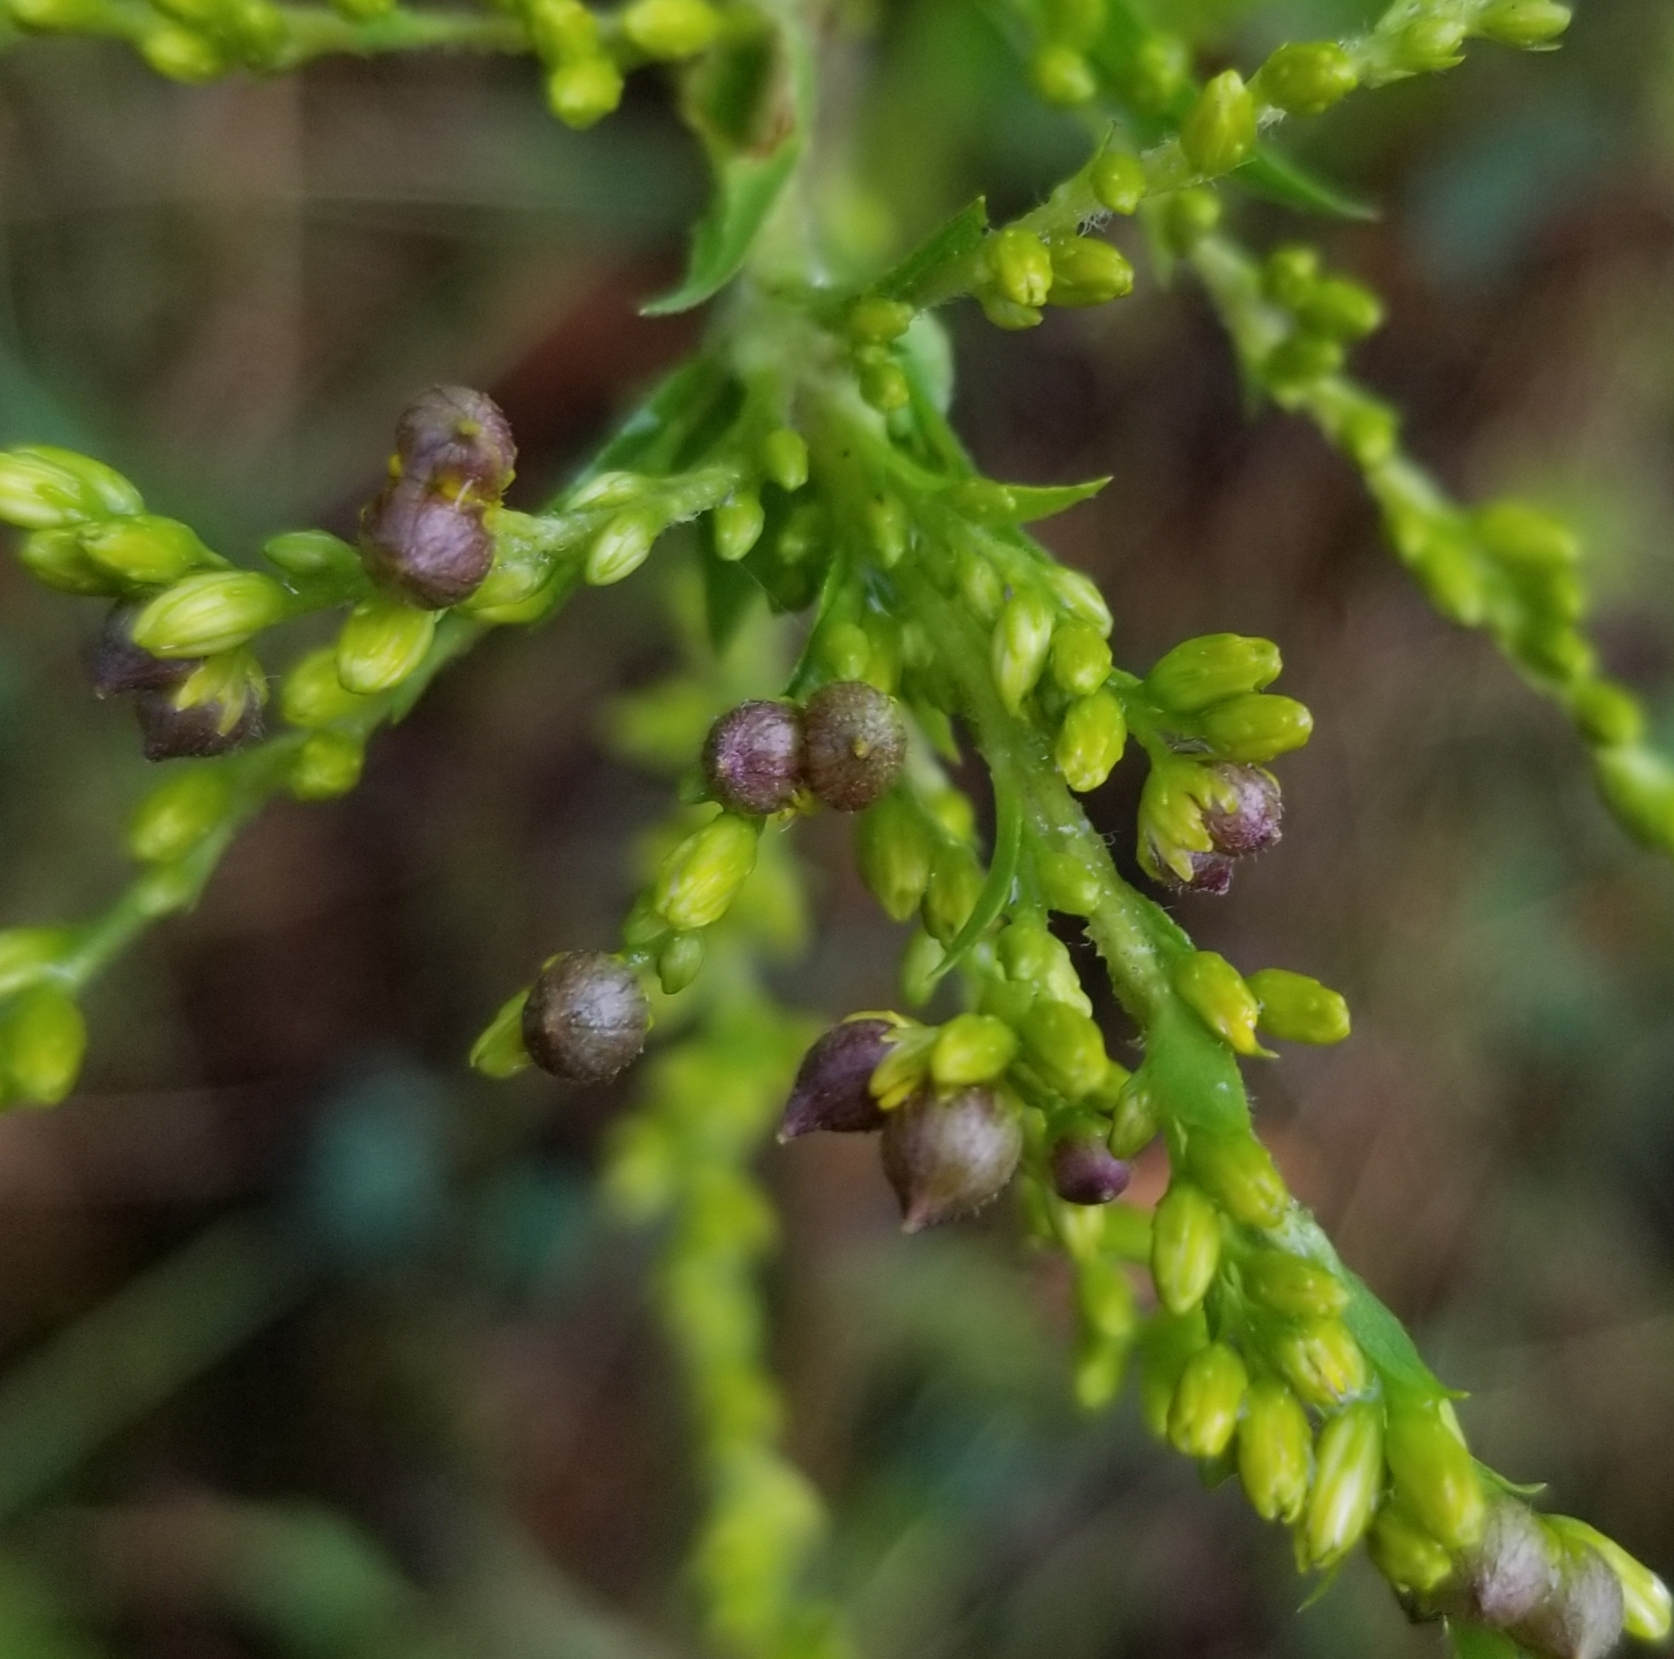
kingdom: Animalia
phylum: Arthropoda
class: Insecta
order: Diptera
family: Cecidomyiidae
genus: Schizomyia
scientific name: Schizomyia racemicola
